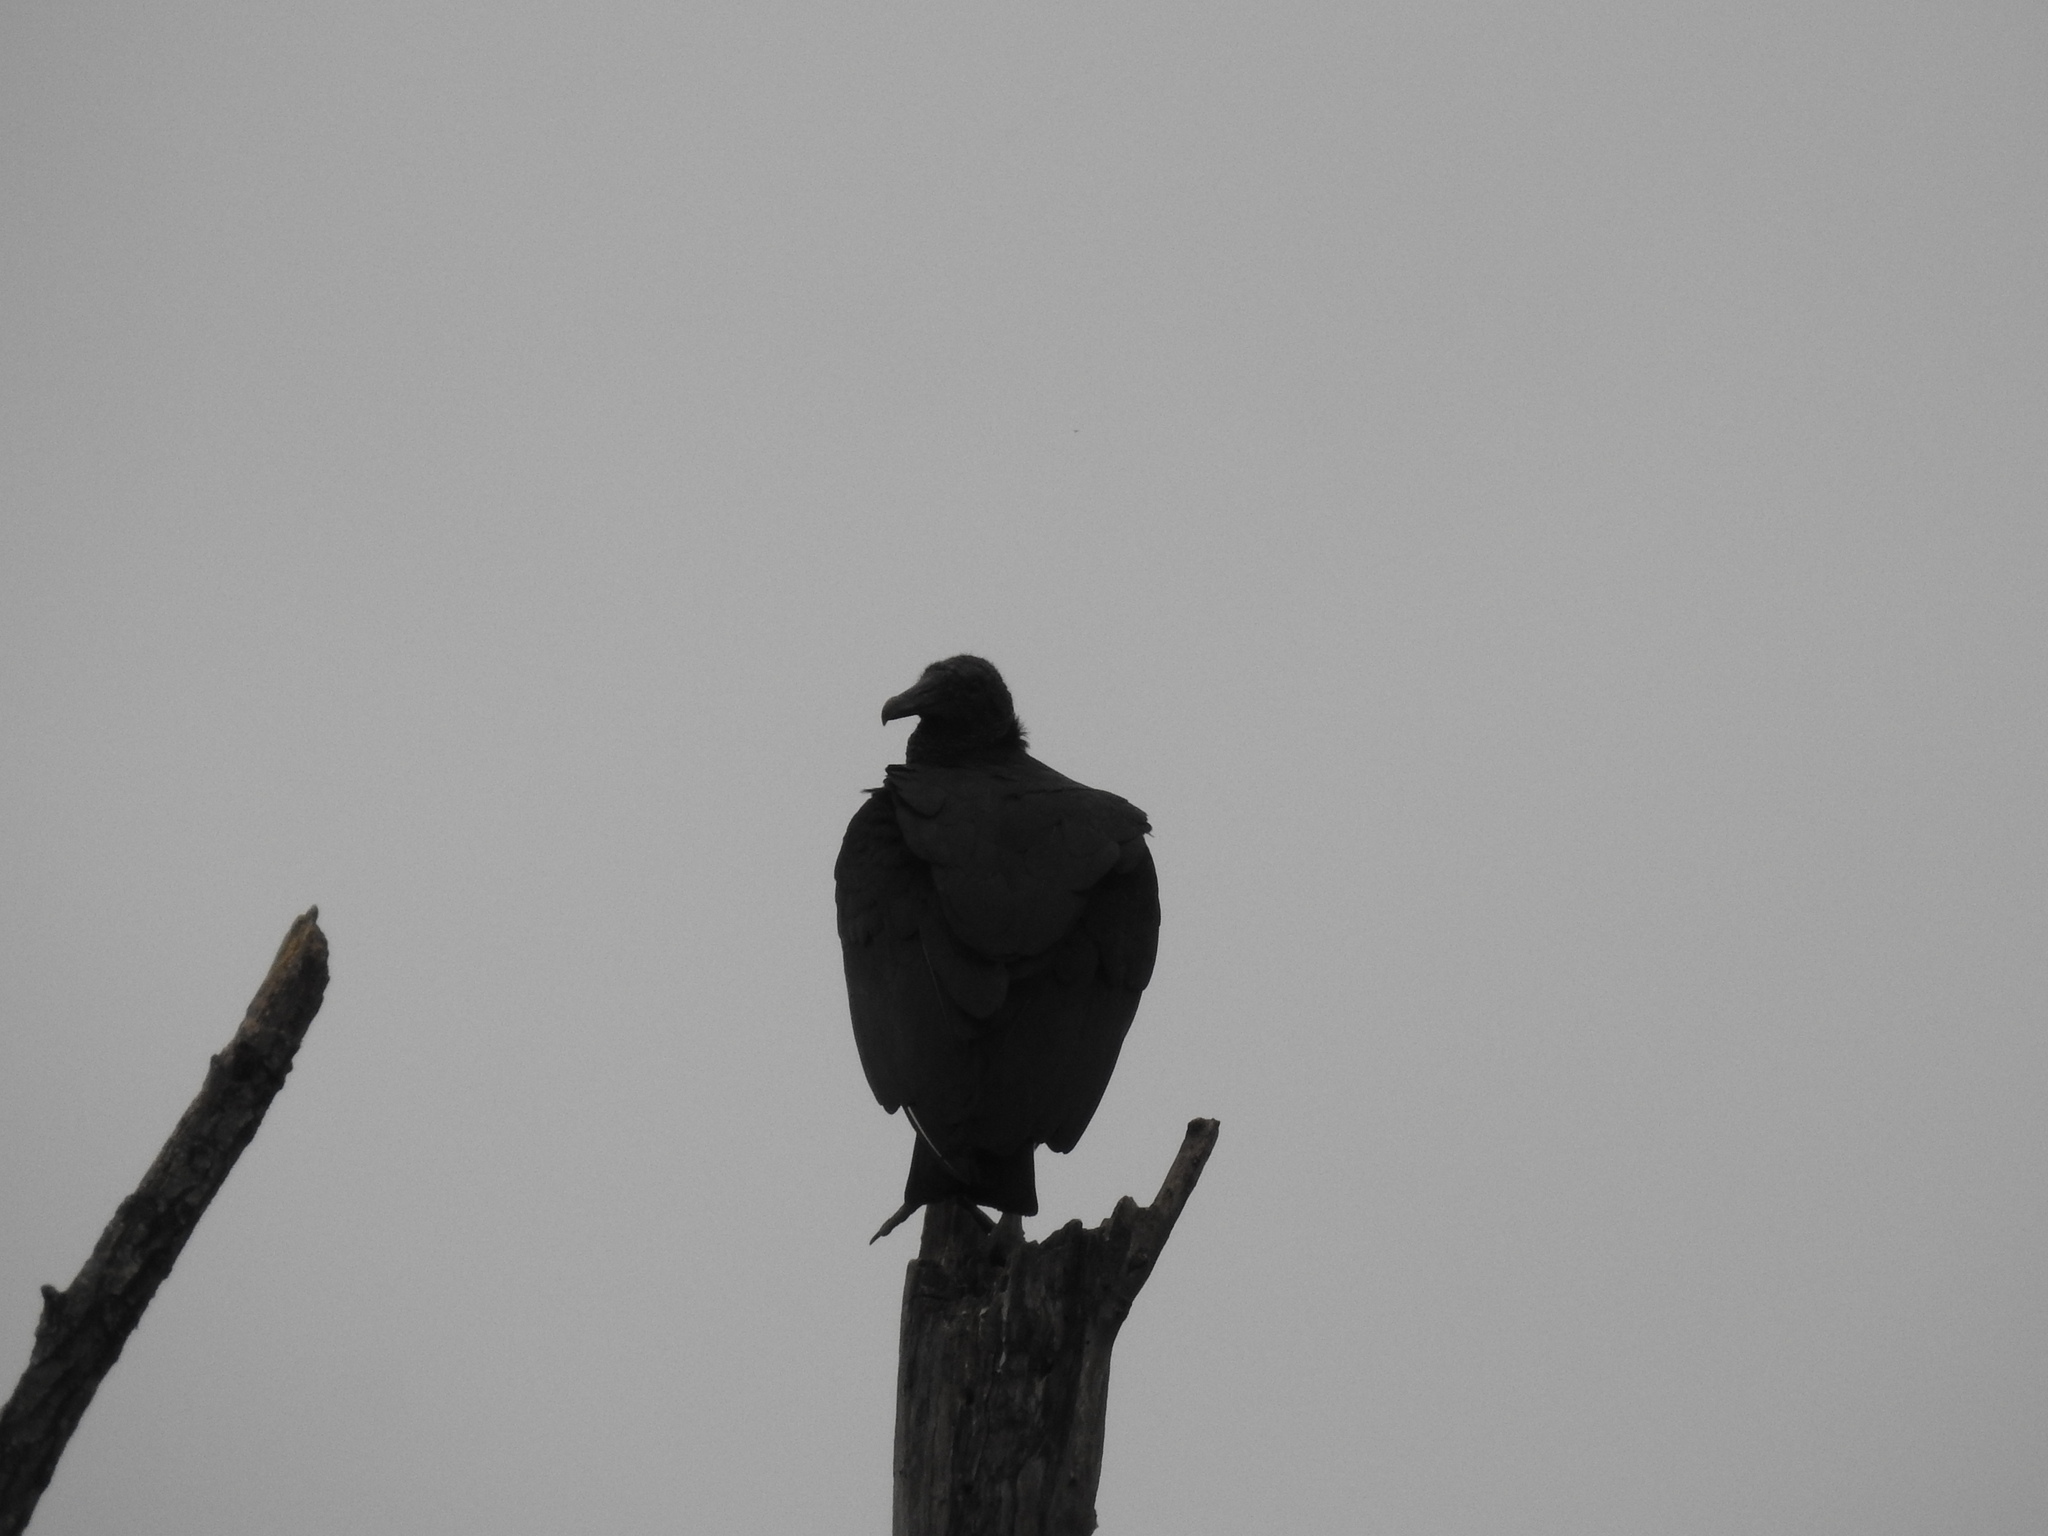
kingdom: Animalia
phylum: Chordata
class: Aves
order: Accipitriformes
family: Cathartidae
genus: Coragyps
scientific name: Coragyps atratus
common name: Black vulture
